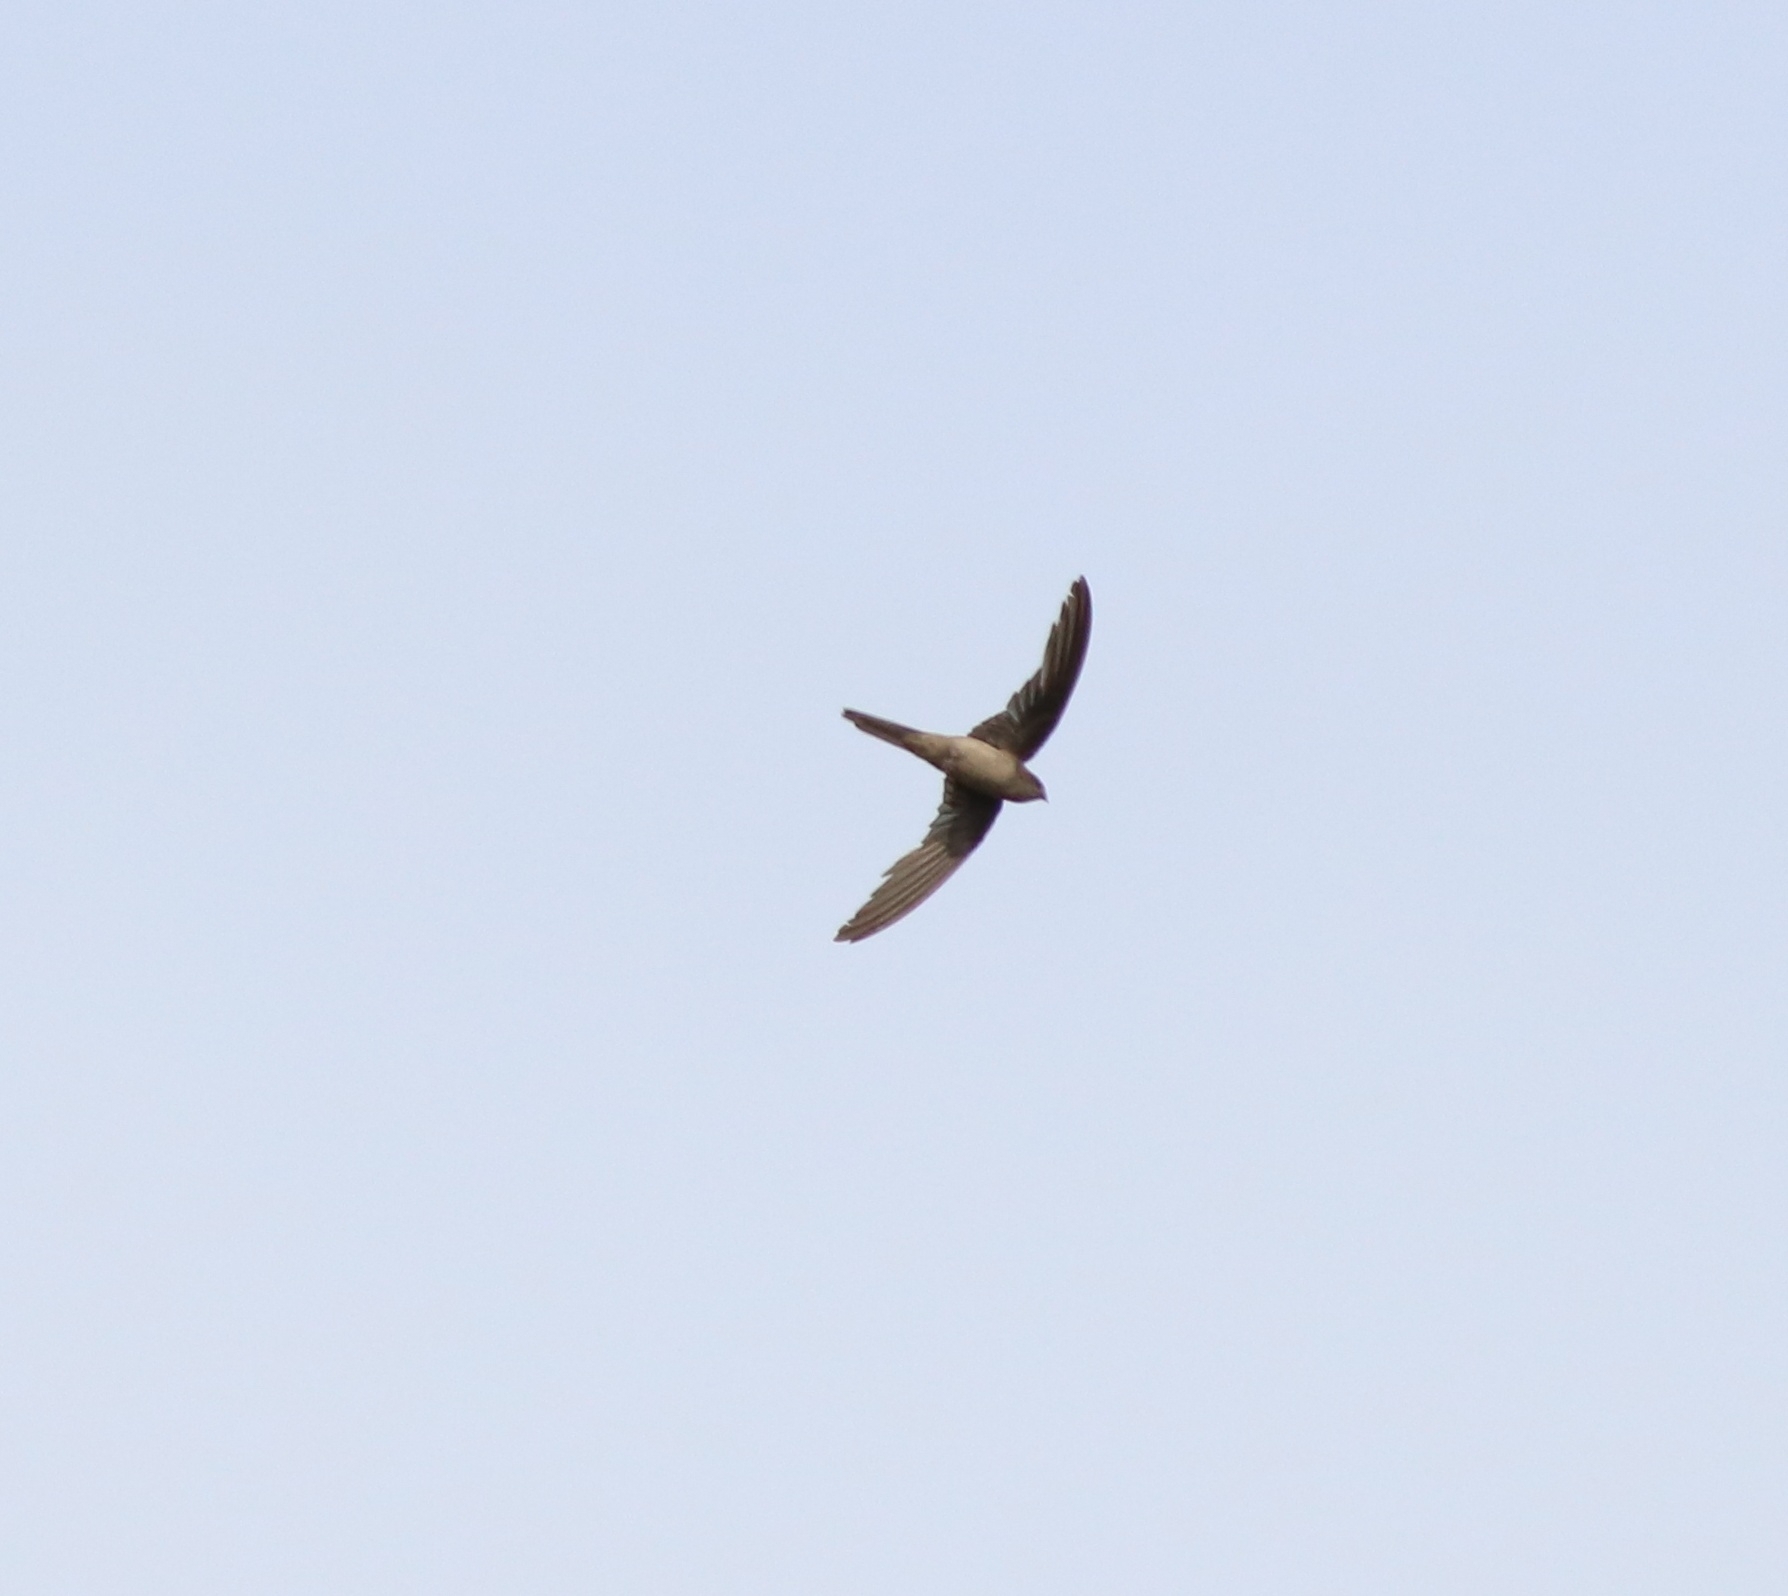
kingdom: Animalia
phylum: Chordata
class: Aves
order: Apodiformes
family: Apodidae
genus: Cypsiurus
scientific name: Cypsiurus balasiensis
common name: Asian palm swift
